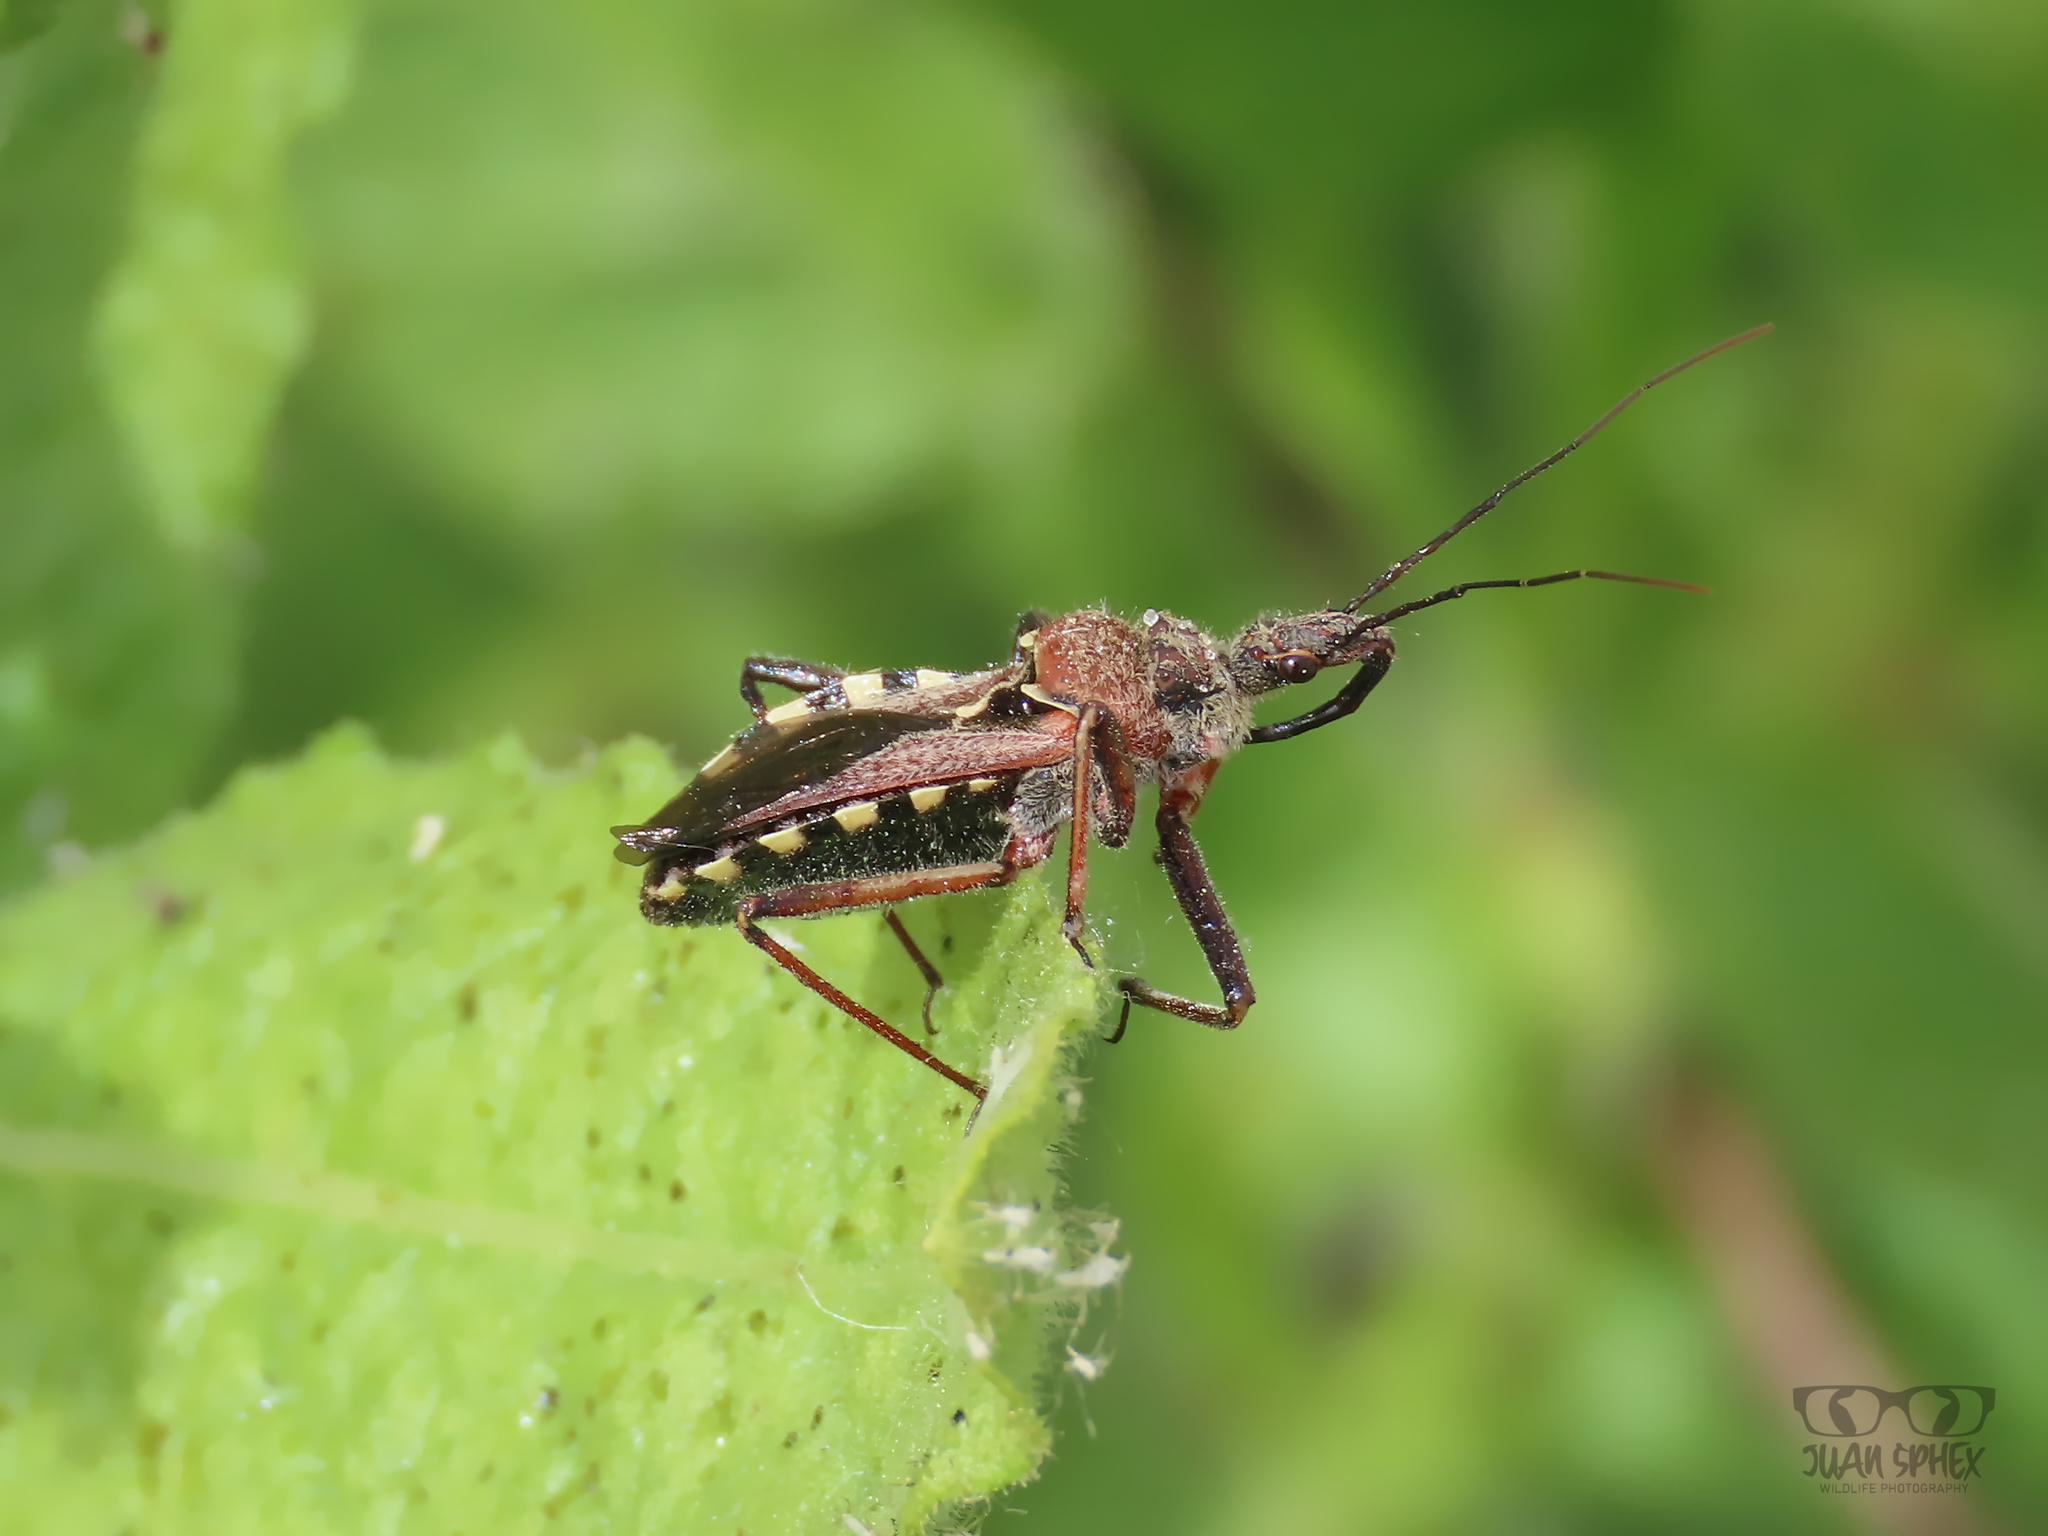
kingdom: Animalia
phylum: Arthropoda
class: Insecta
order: Hemiptera
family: Reduviidae
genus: Rhynocoris
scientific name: Rhynocoris erythropus
